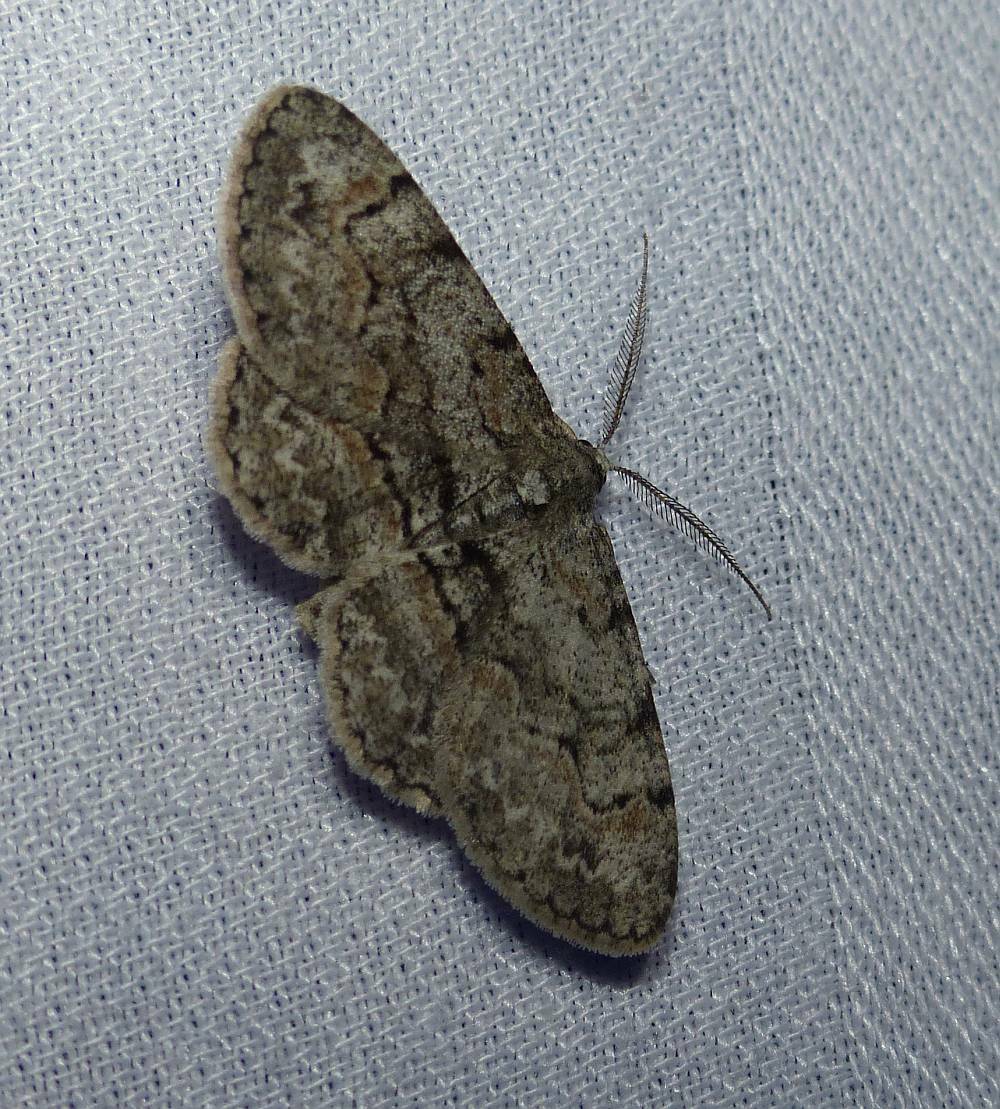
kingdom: Animalia
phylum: Arthropoda
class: Insecta
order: Lepidoptera
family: Geometridae
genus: Iridopsis
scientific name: Iridopsis ephyraria
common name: Pale-winged gray
